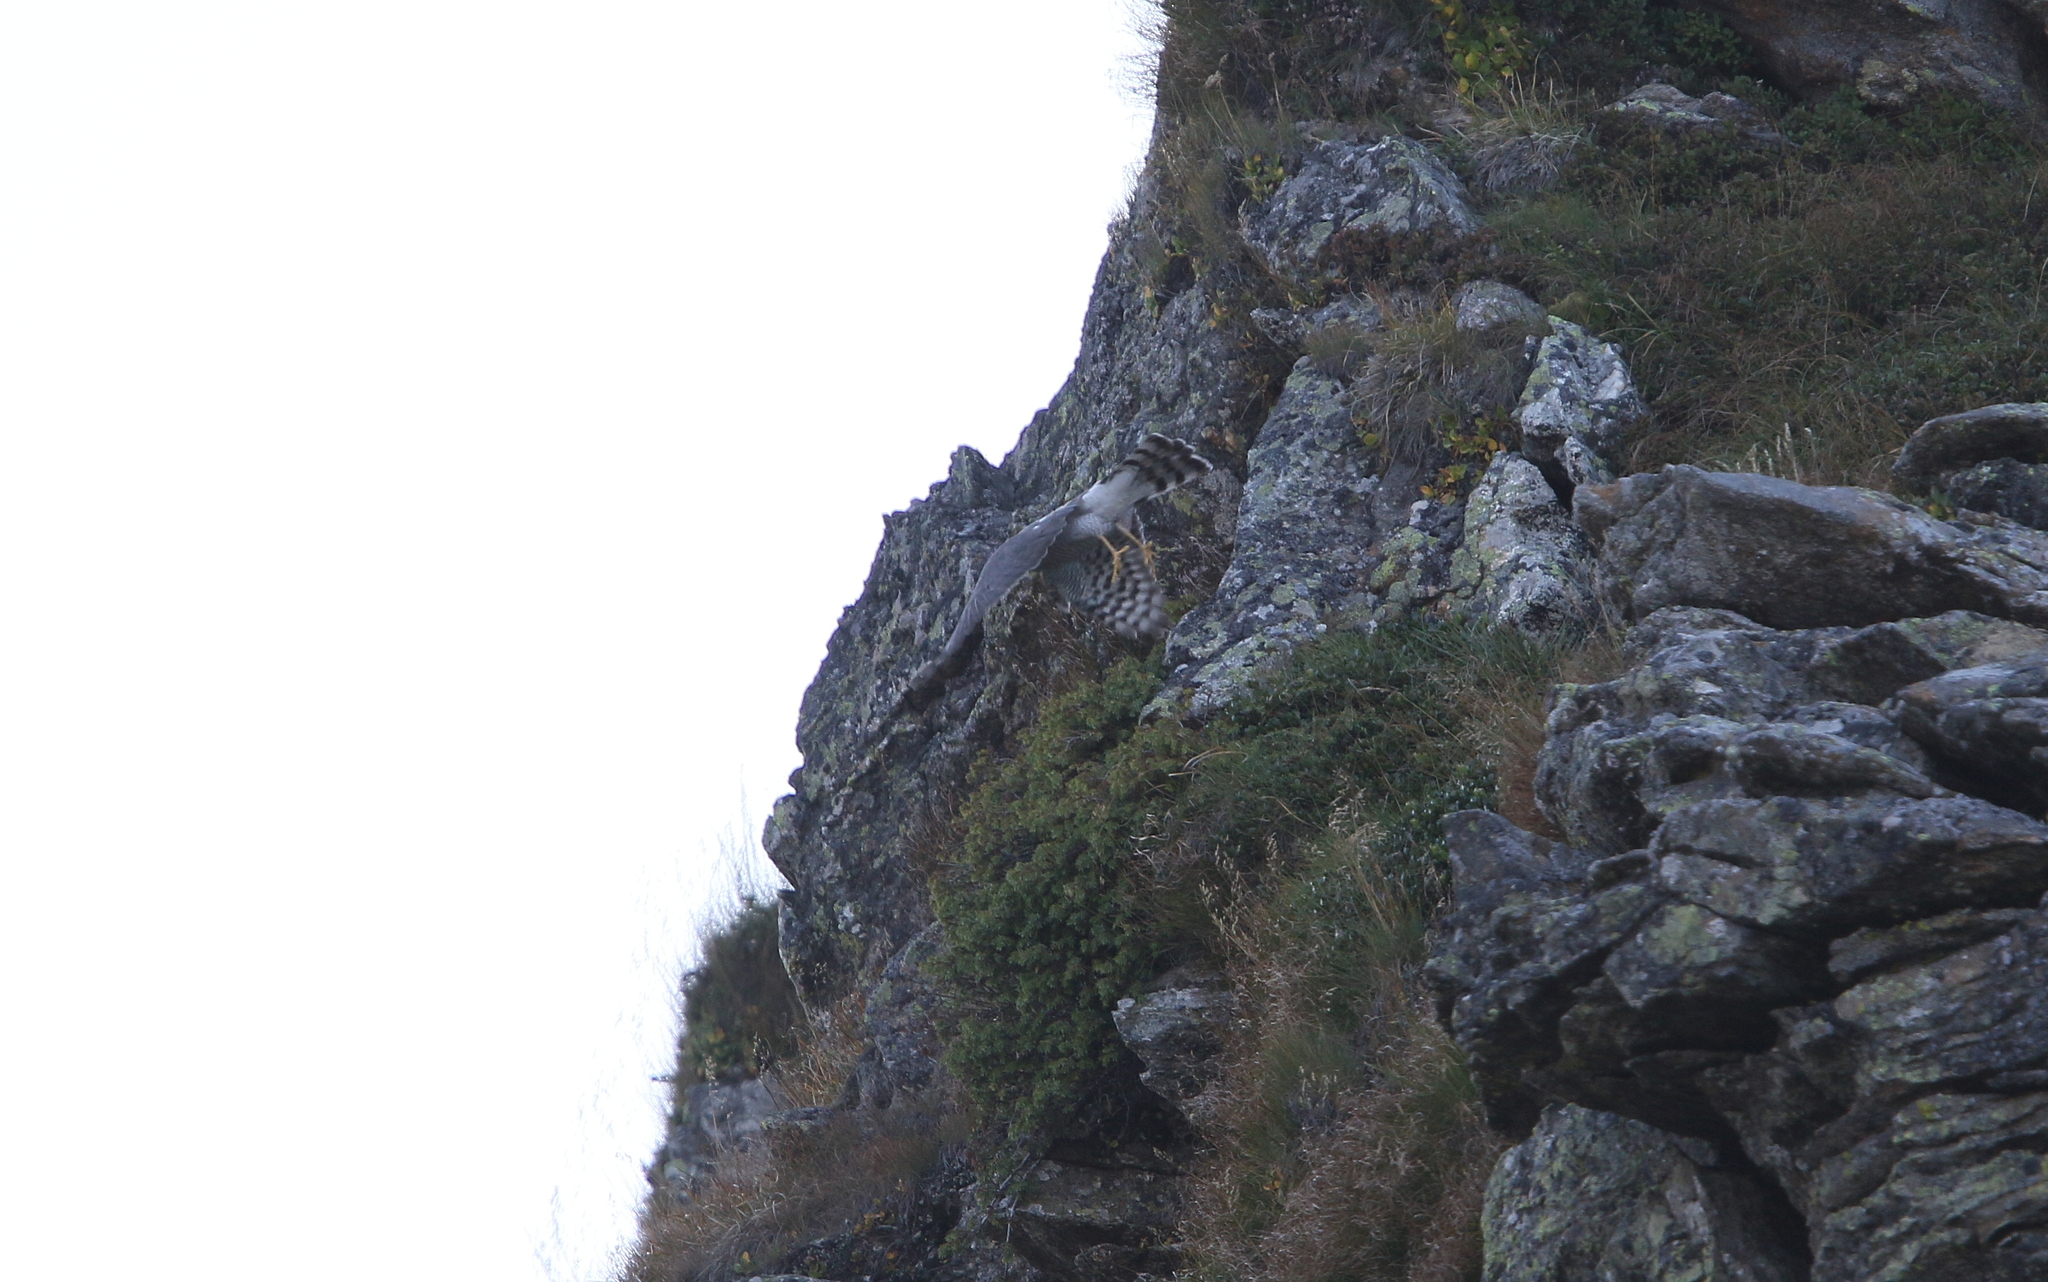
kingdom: Animalia
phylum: Chordata
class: Aves
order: Accipitriformes
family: Accipitridae
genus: Accipiter
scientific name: Accipiter nisus
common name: Eurasian sparrowhawk
